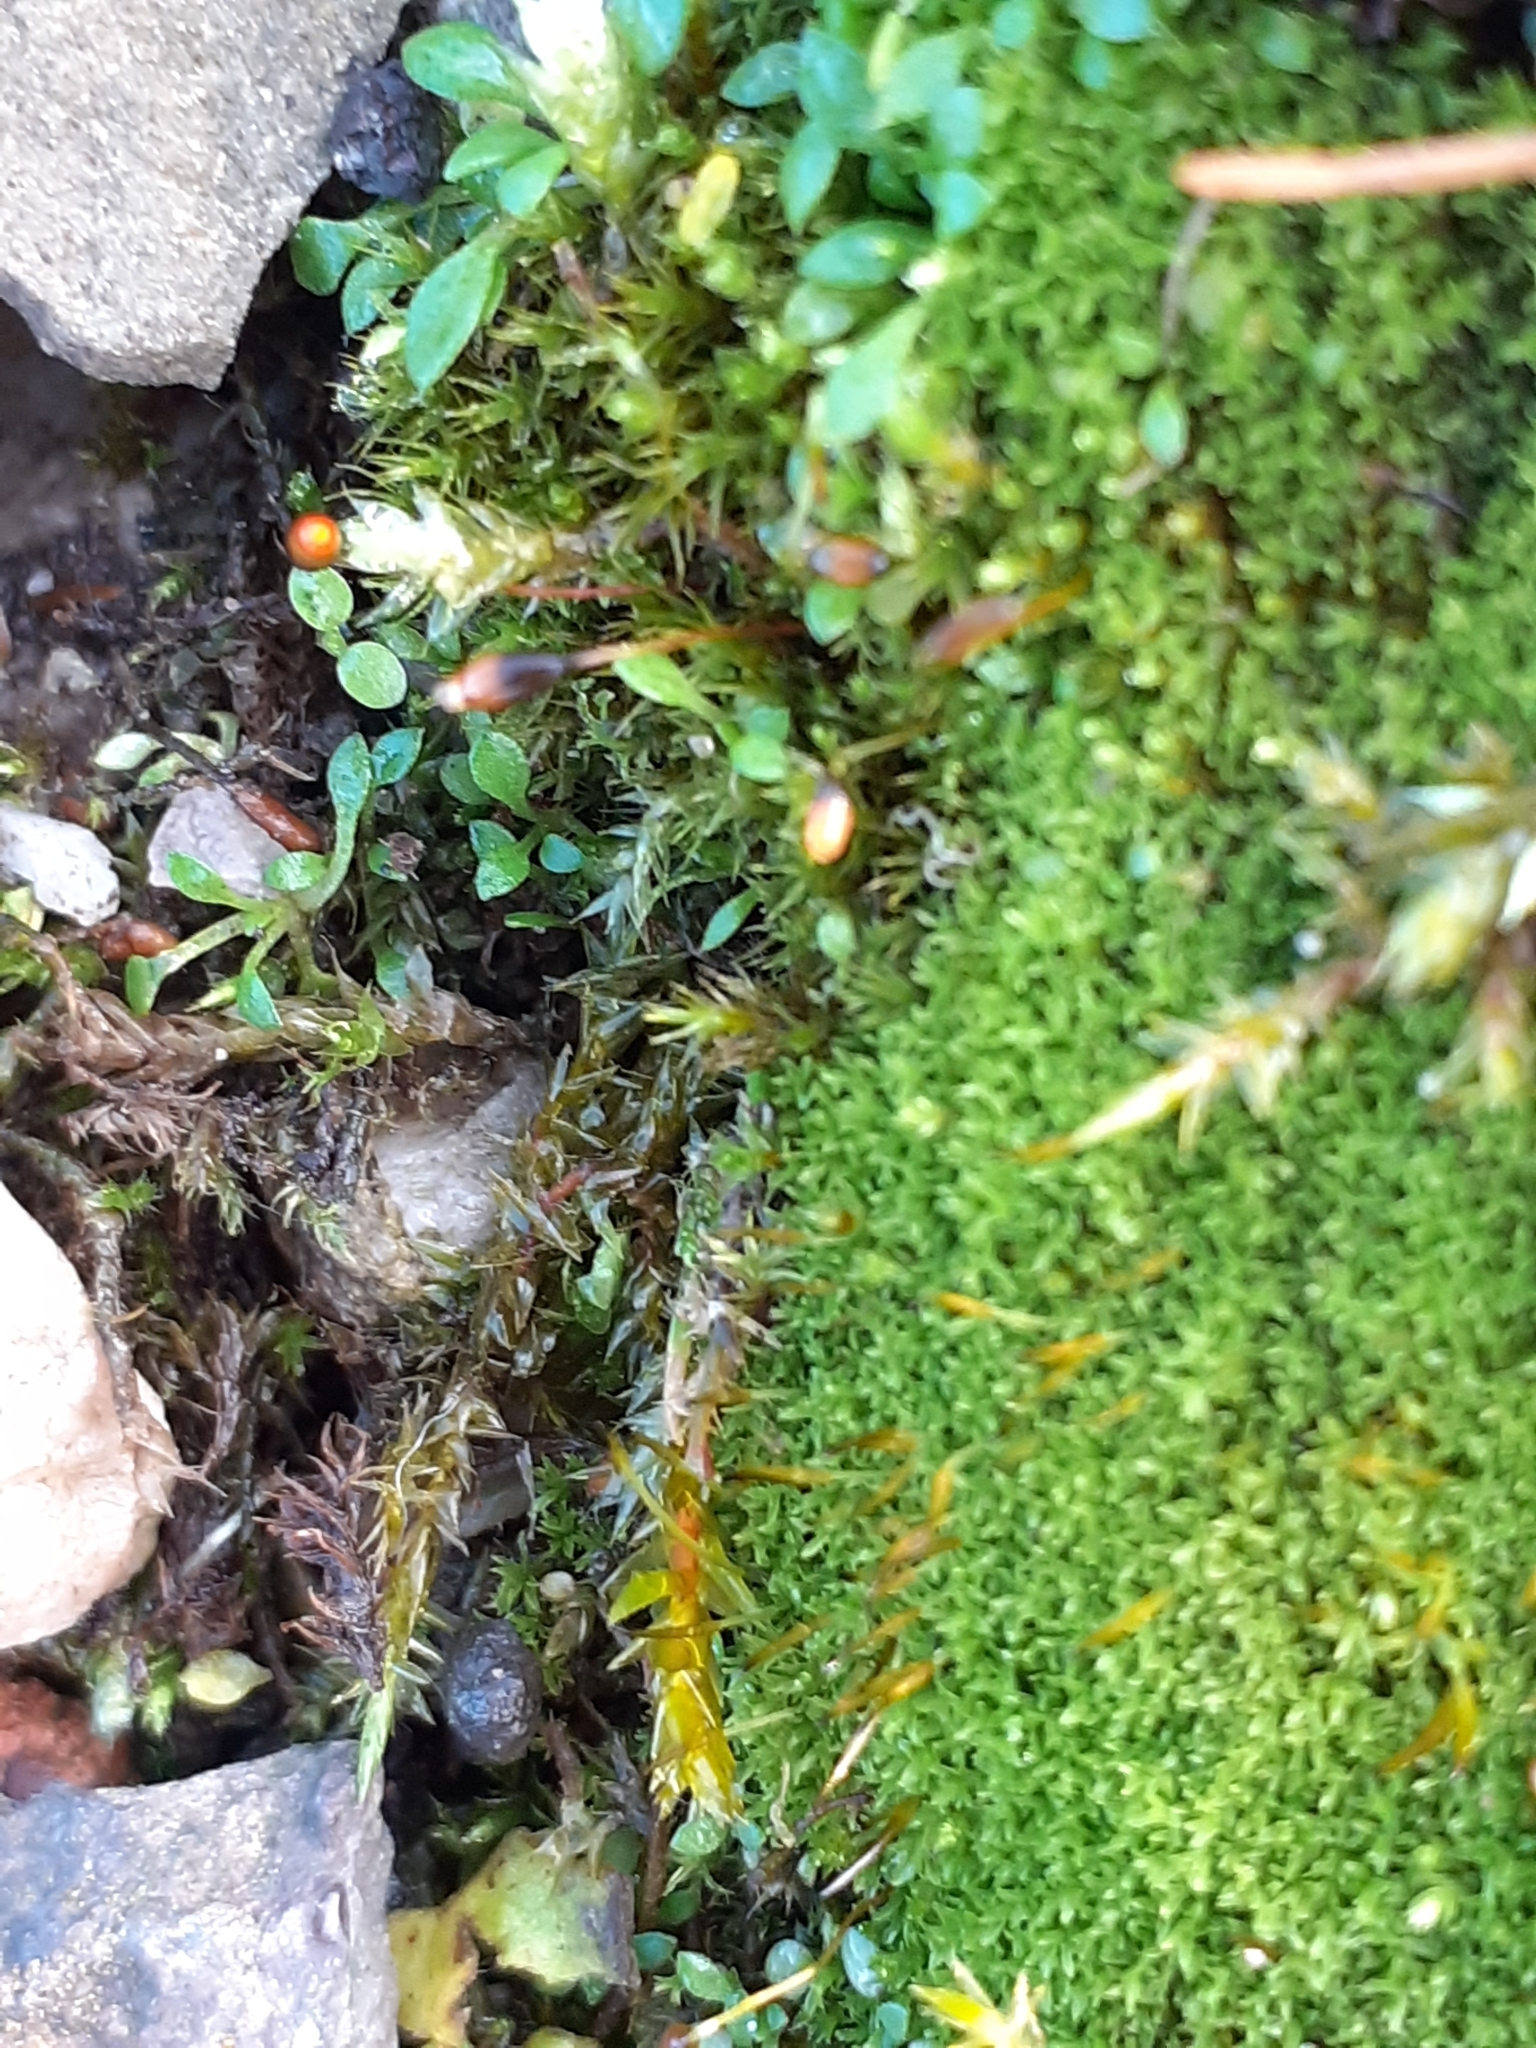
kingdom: Plantae
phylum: Bryophyta
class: Bryopsida
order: Pottiales
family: Pottiaceae
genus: Streblotrichum
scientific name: Streblotrichum convolutum
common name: Lesser bird's-claw beard-moss
